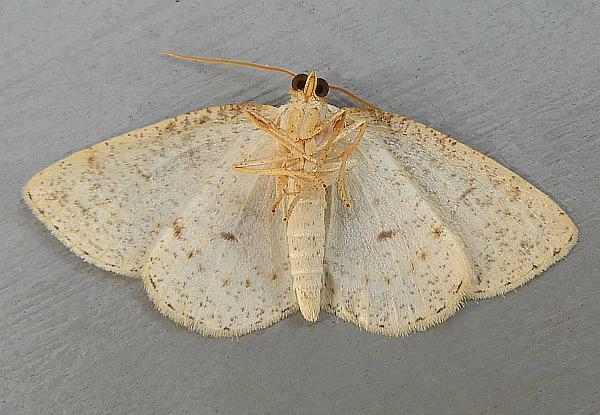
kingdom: Animalia
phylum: Arthropoda
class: Insecta
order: Lepidoptera
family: Geometridae
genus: Gueneria
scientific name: Gueneria similaria
